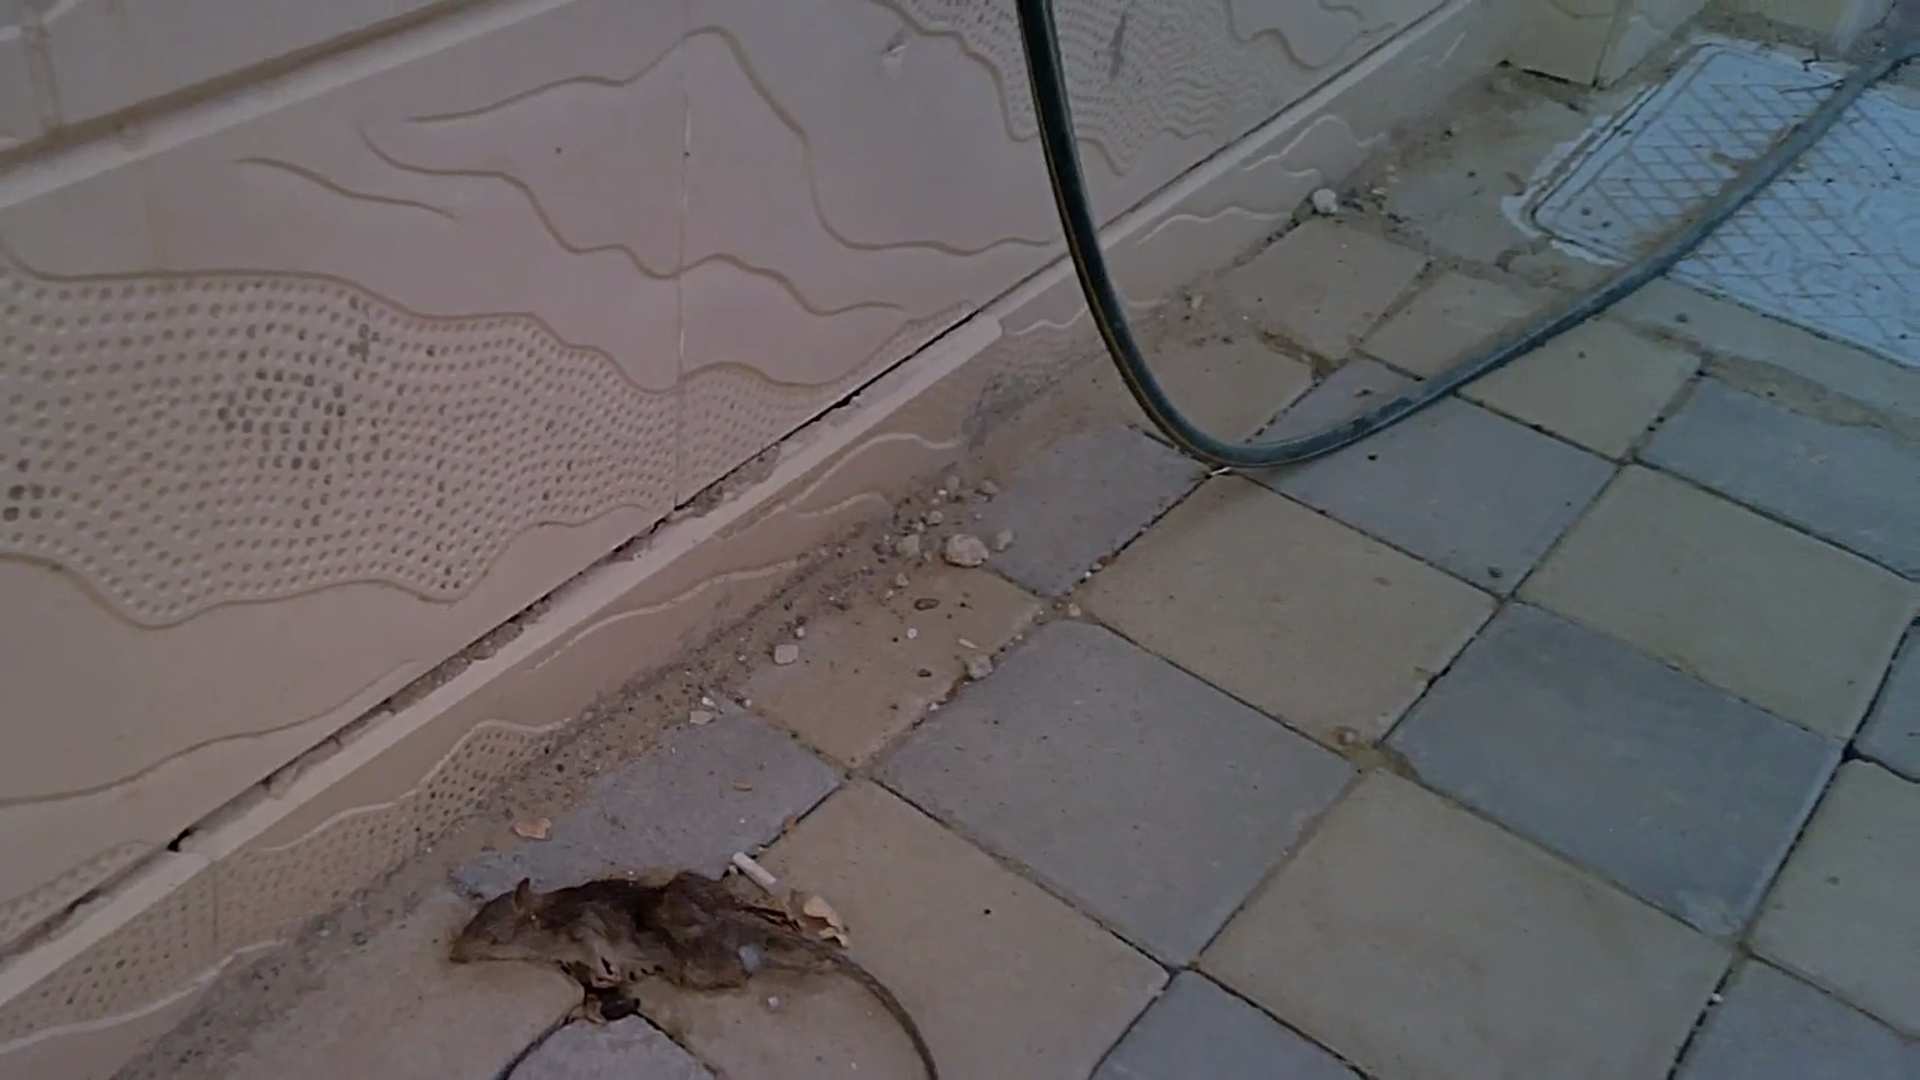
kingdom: Animalia
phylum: Chordata
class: Mammalia
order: Rodentia
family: Muridae
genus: Rattus
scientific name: Rattus rattus
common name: Black rat
